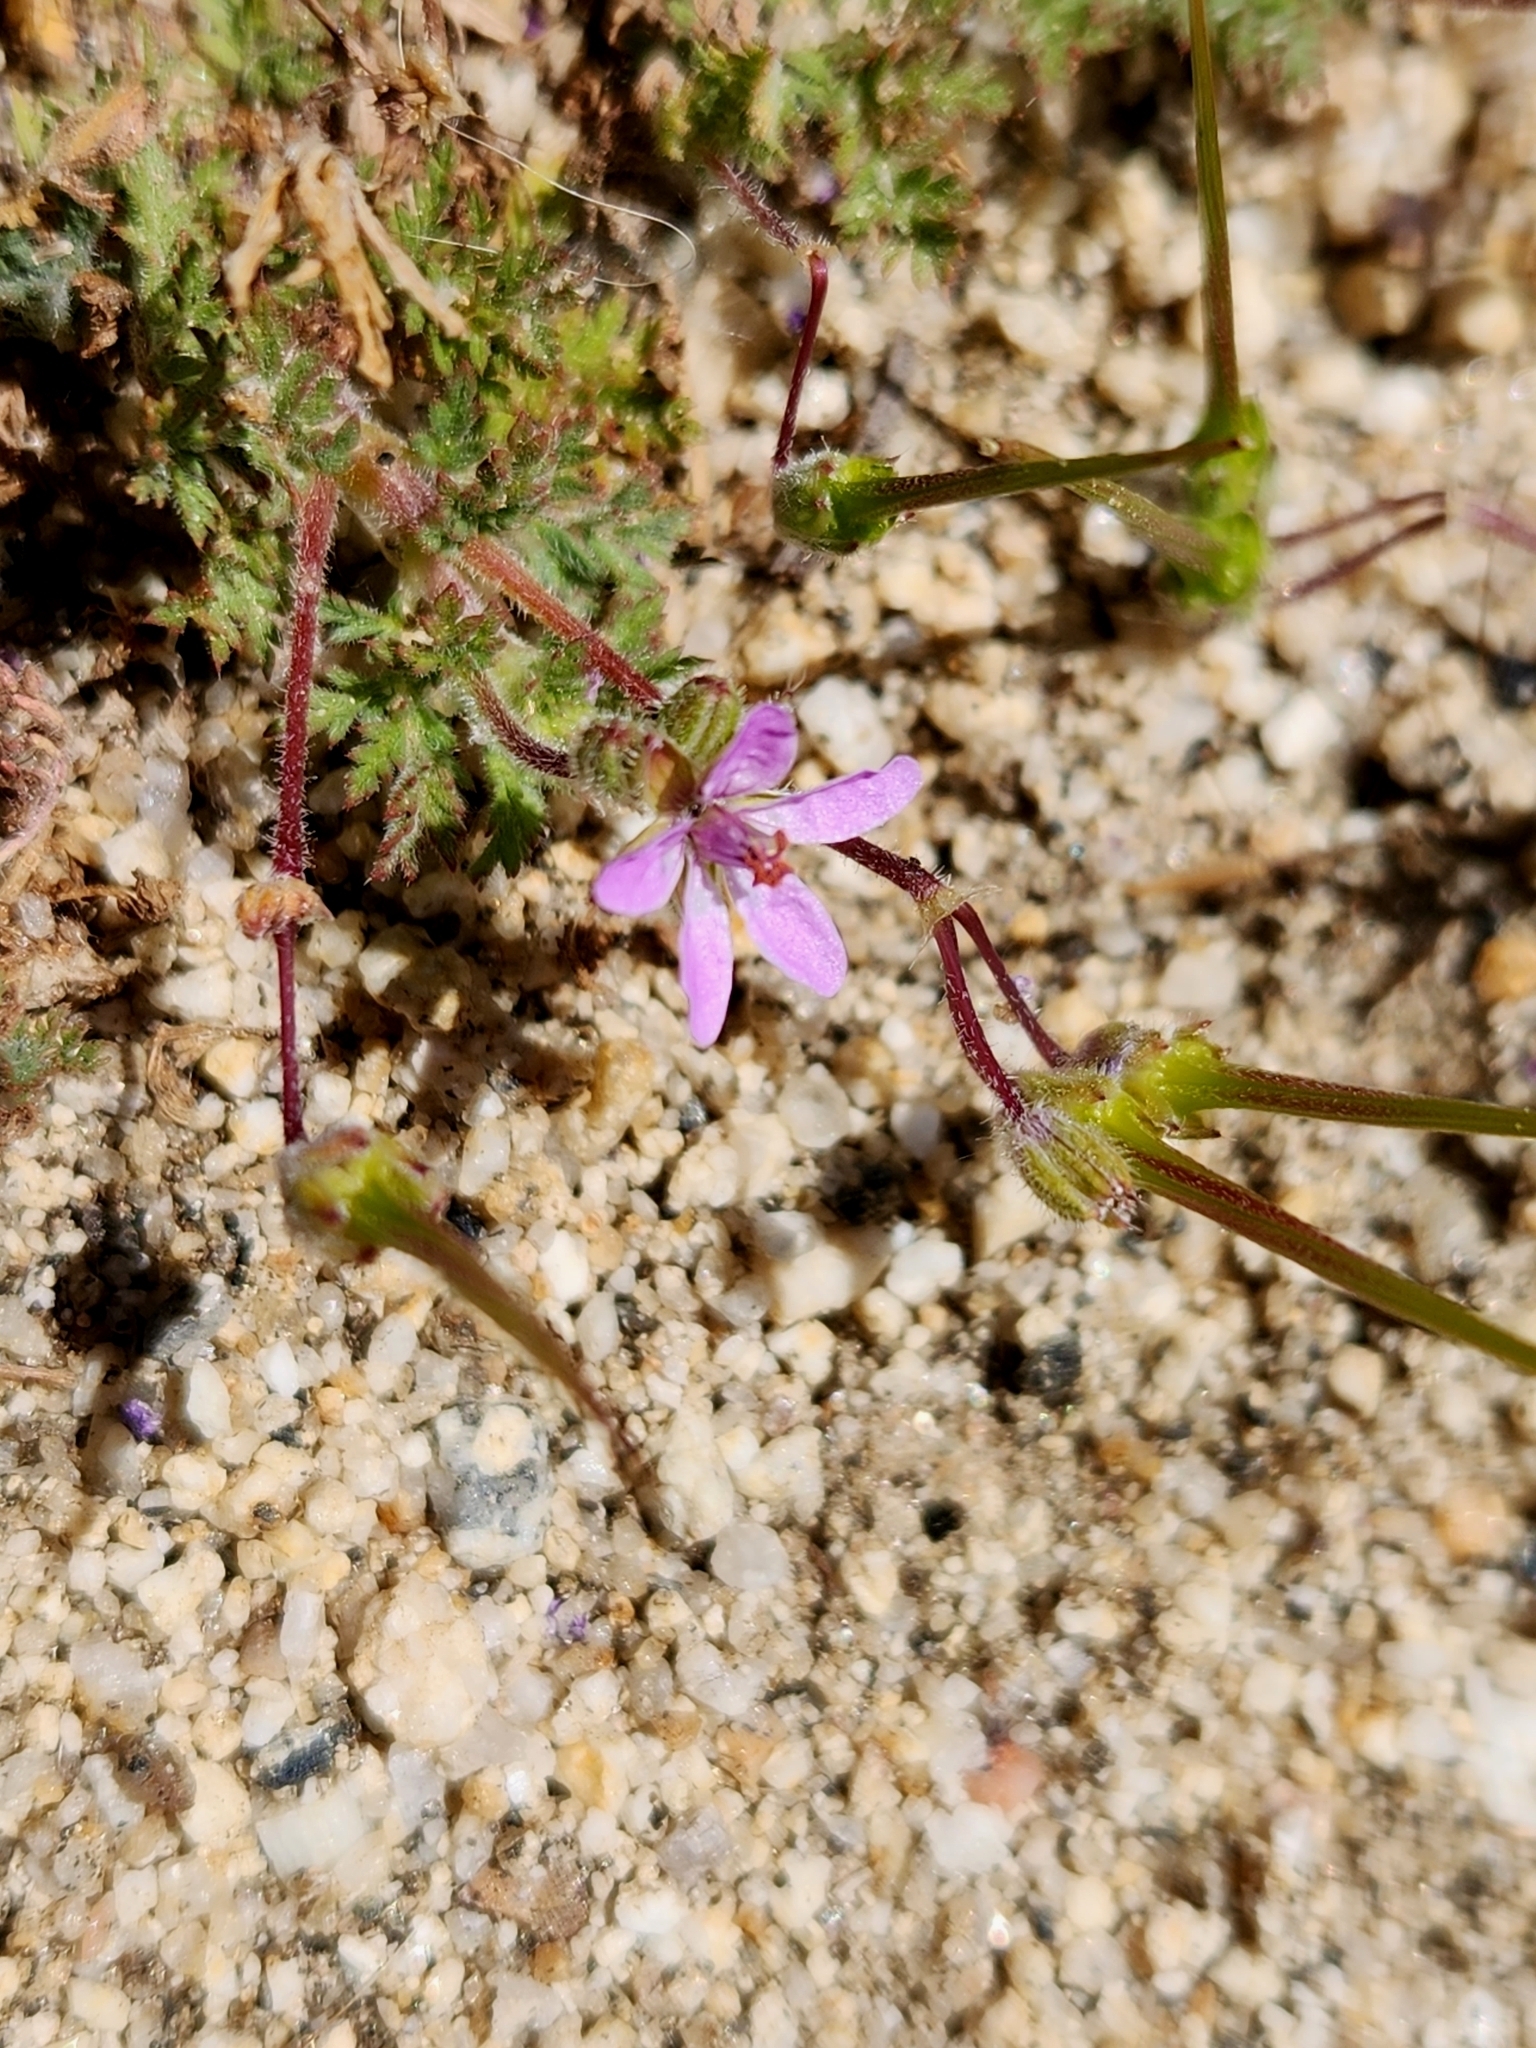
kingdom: Plantae
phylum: Tracheophyta
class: Magnoliopsida
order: Geraniales
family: Geraniaceae
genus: Erodium
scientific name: Erodium cicutarium
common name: Common stork's-bill
